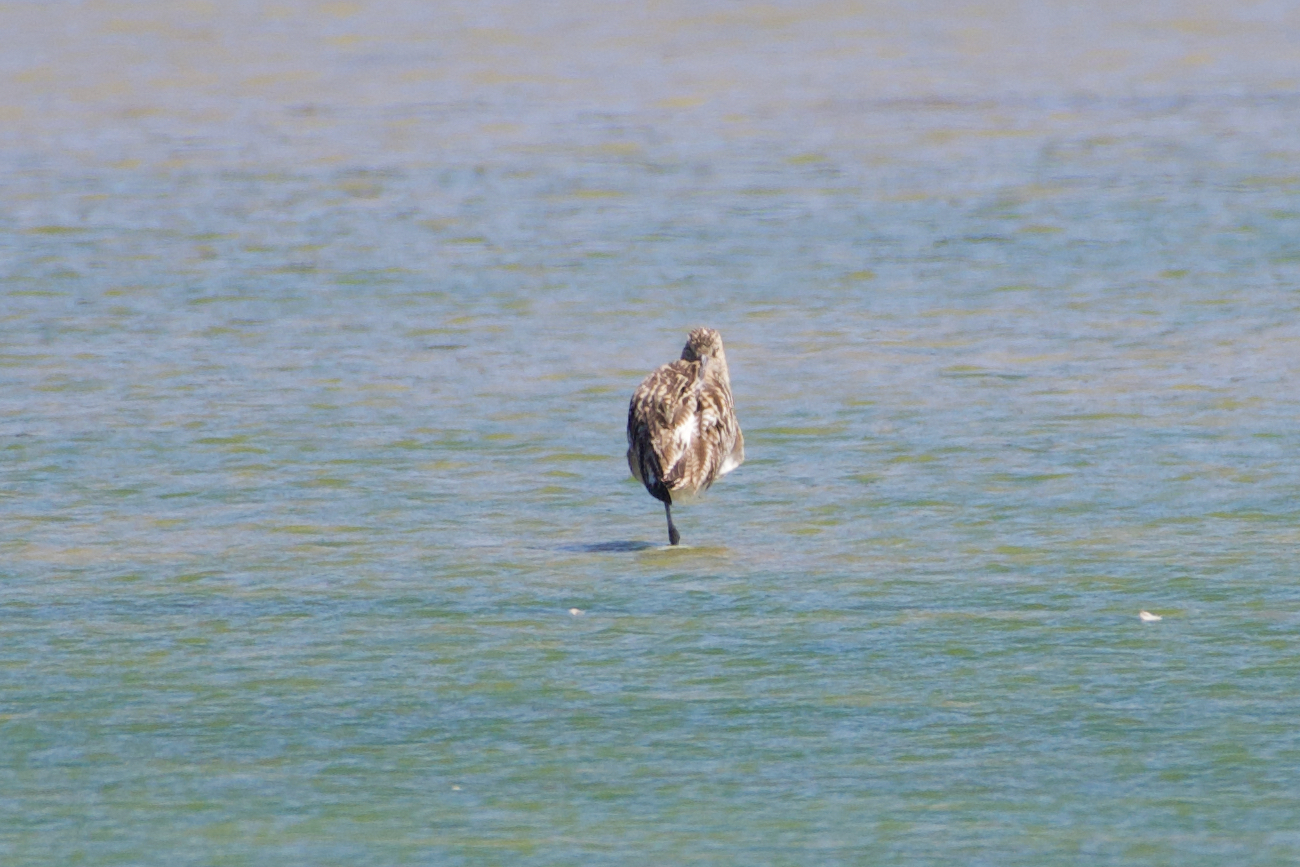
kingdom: Animalia
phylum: Chordata
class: Aves
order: Charadriiformes
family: Scolopacidae
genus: Numenius
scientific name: Numenius arquata
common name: Eurasian curlew
